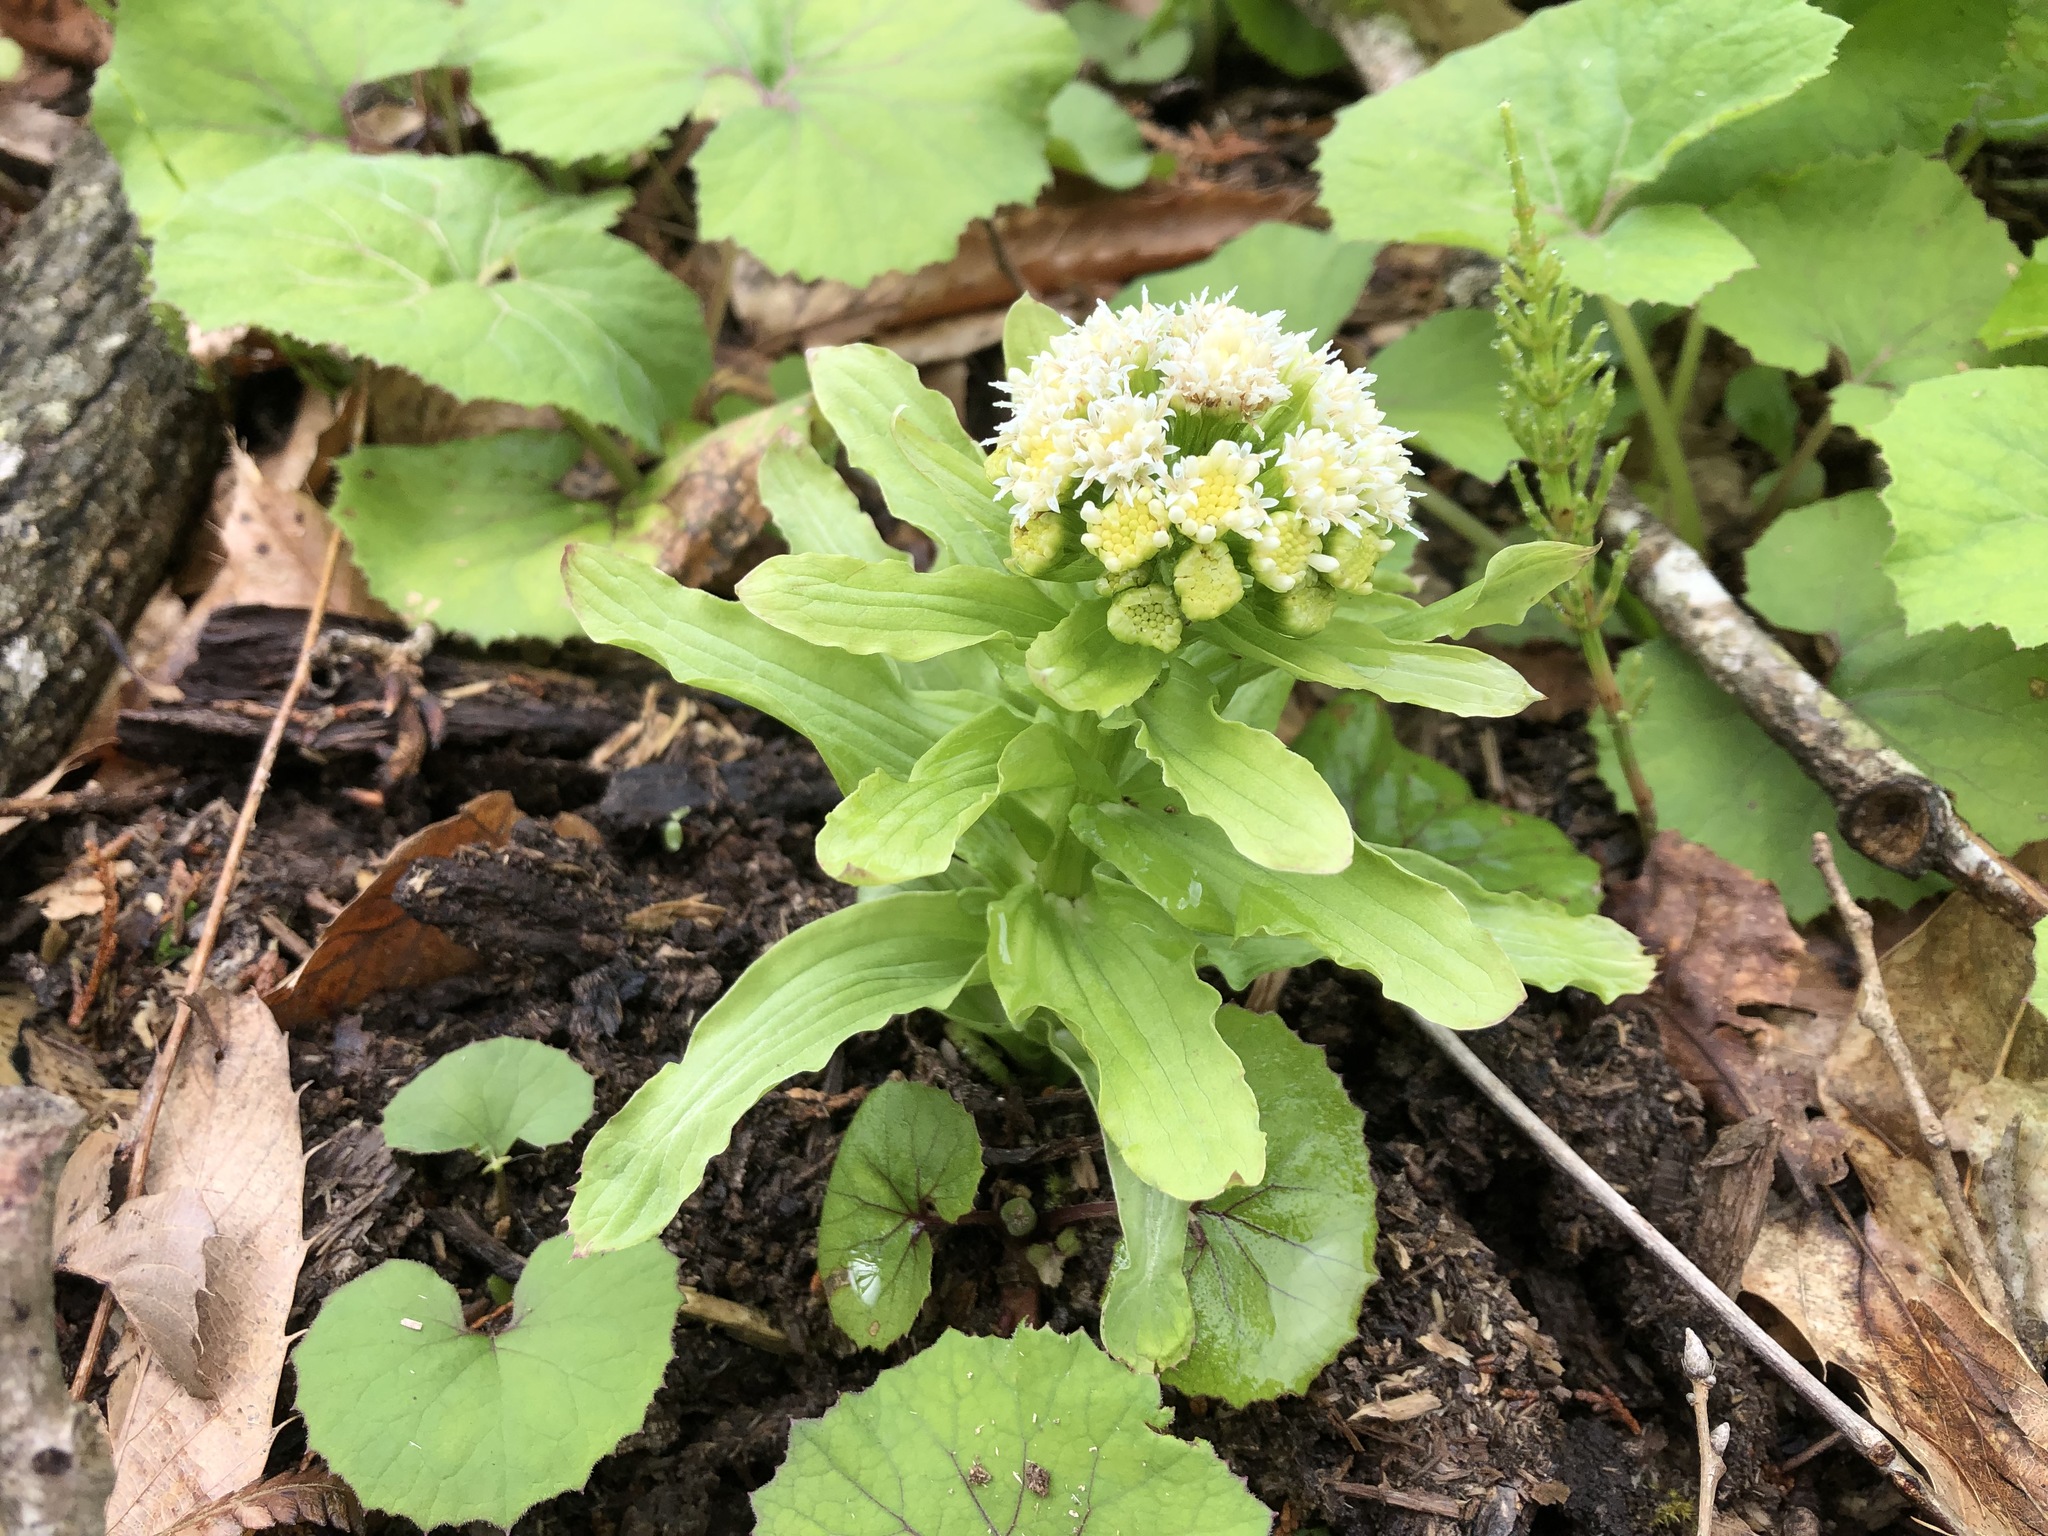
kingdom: Plantae
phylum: Tracheophyta
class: Magnoliopsida
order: Asterales
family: Asteraceae
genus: Petasites
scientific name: Petasites japonicus
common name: Giant butterbur
